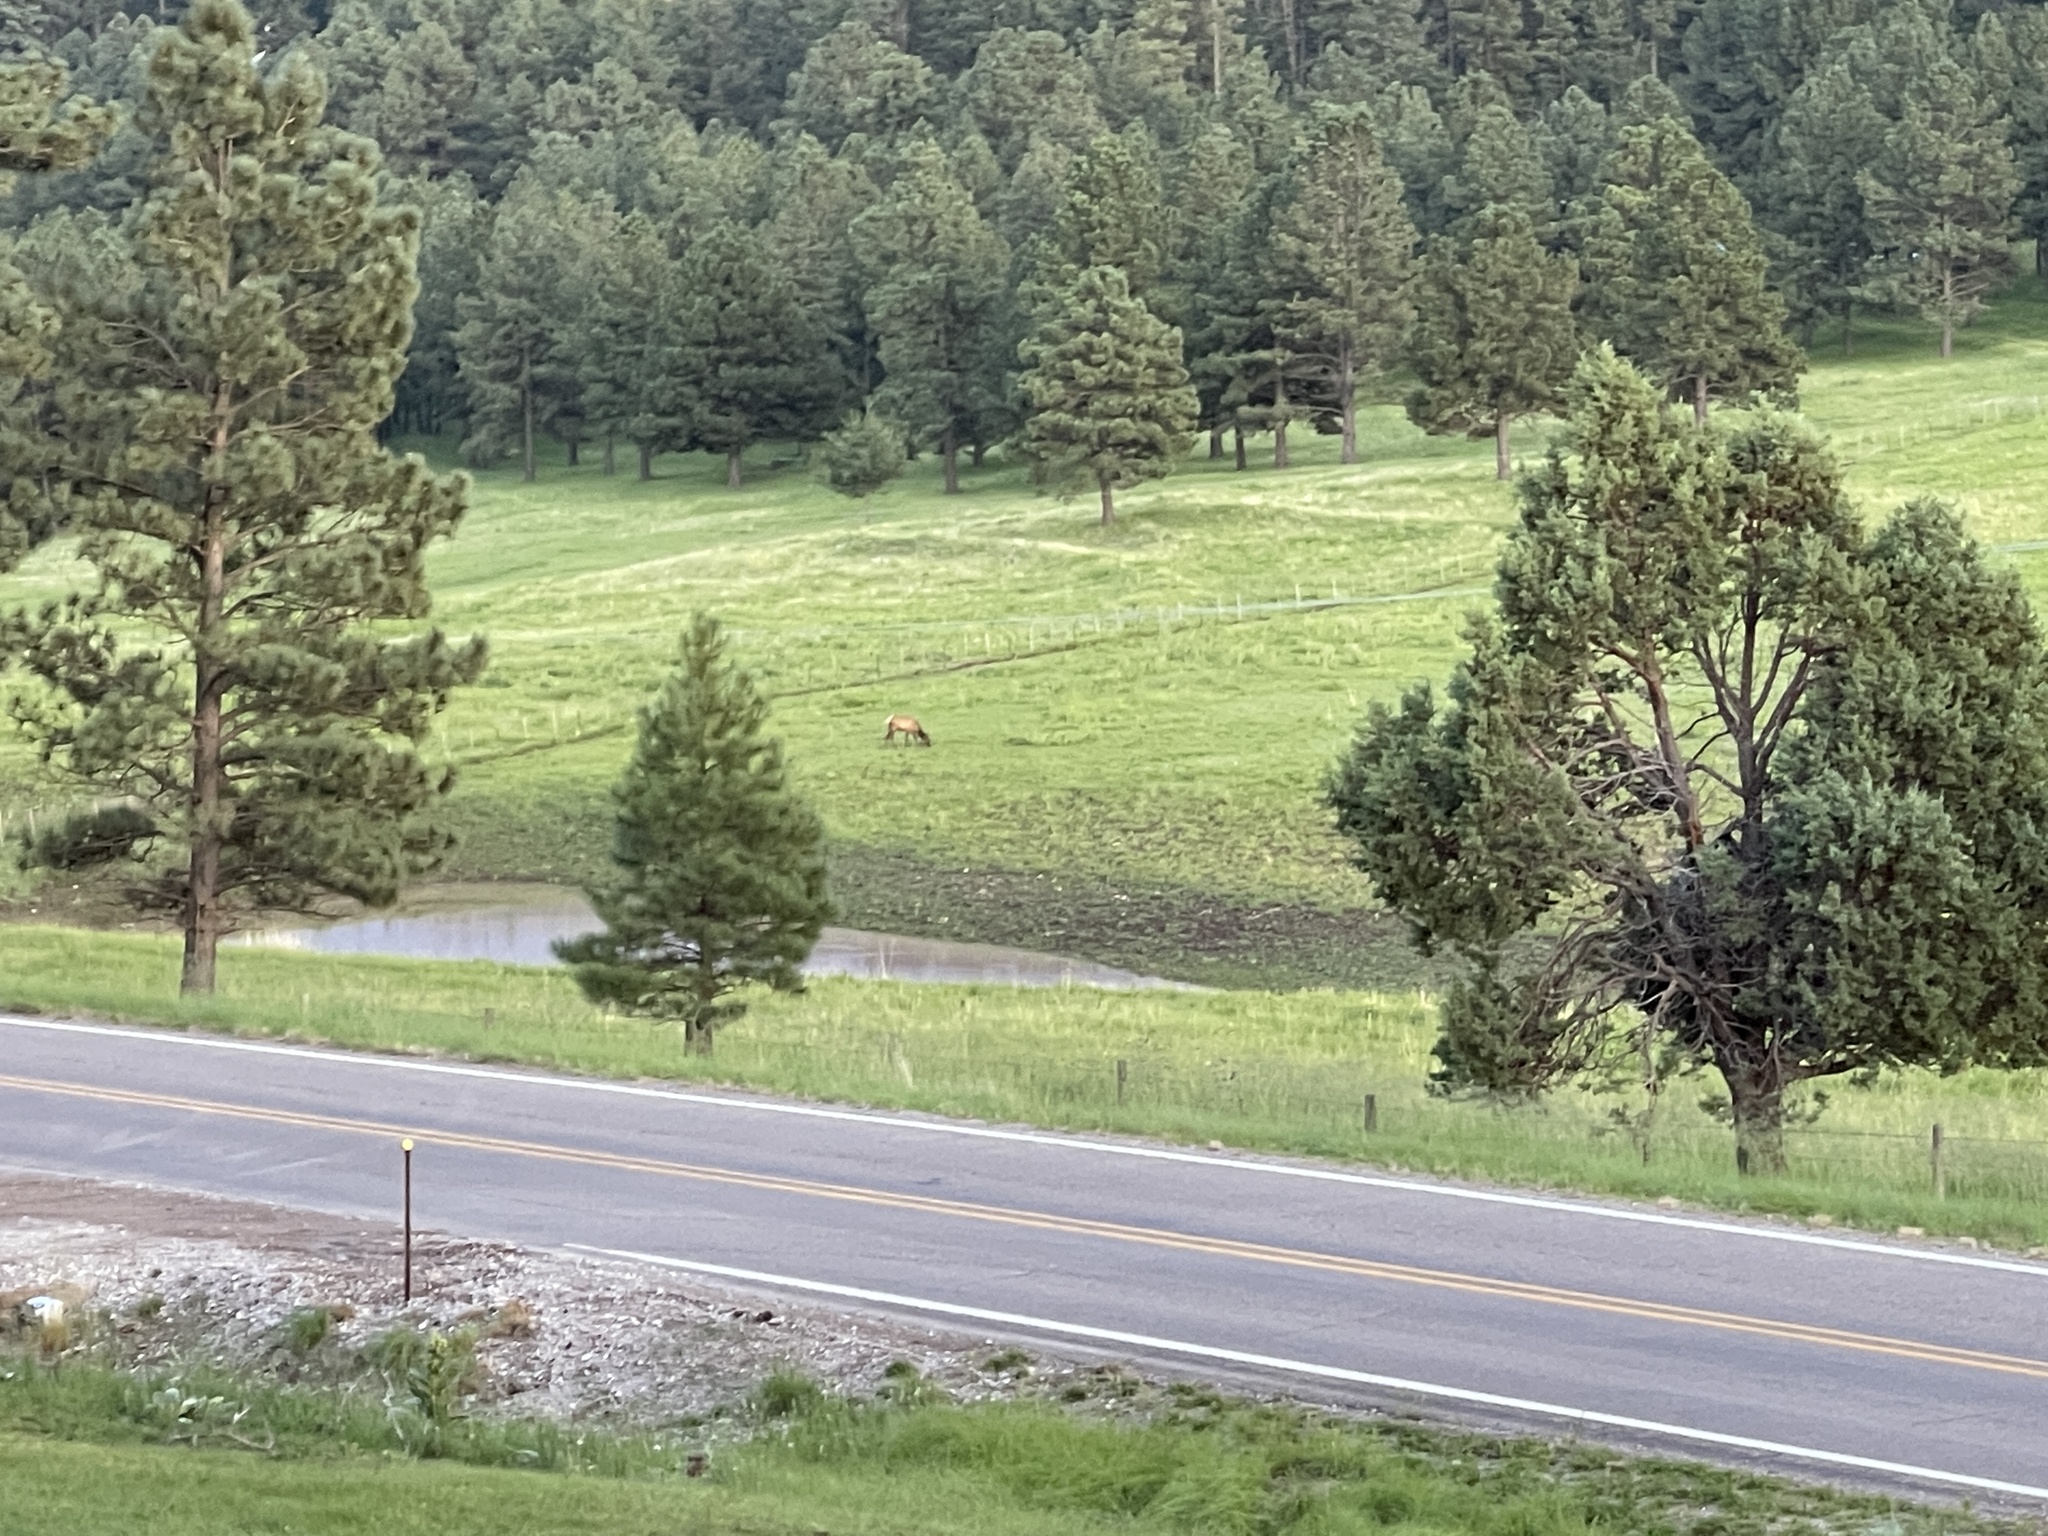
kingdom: Animalia
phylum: Chordata
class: Mammalia
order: Artiodactyla
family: Cervidae
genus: Cervus
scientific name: Cervus elaphus
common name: Red deer
